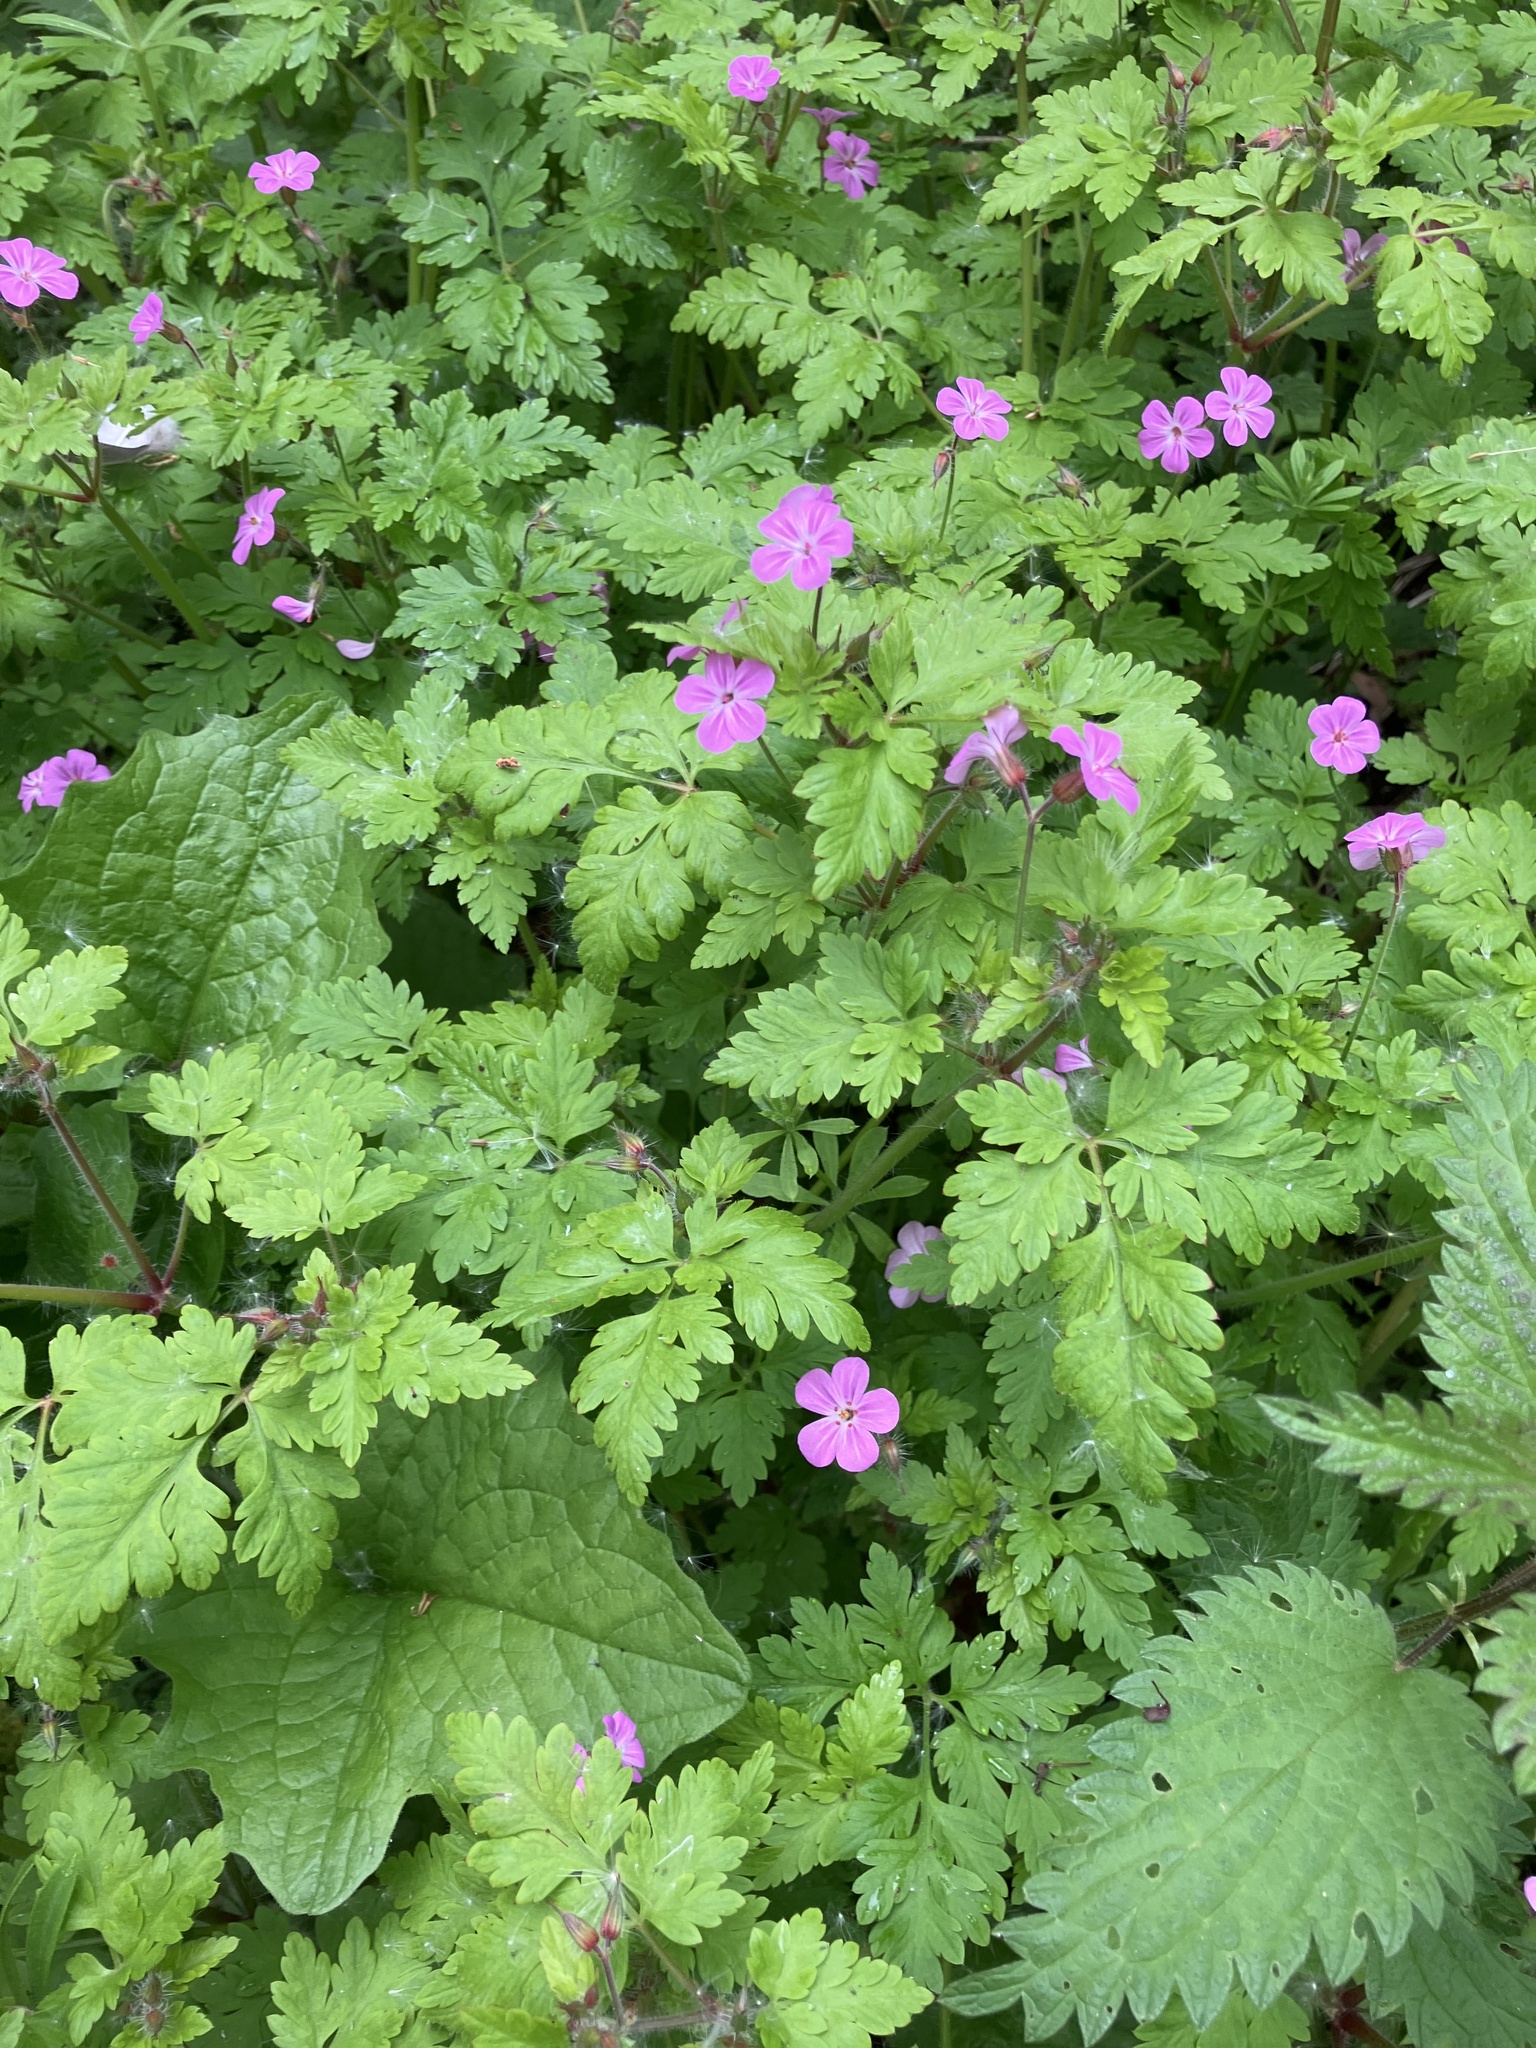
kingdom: Plantae
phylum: Tracheophyta
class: Magnoliopsida
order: Geraniales
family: Geraniaceae
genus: Geranium
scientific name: Geranium robertianum
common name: Herb-robert
